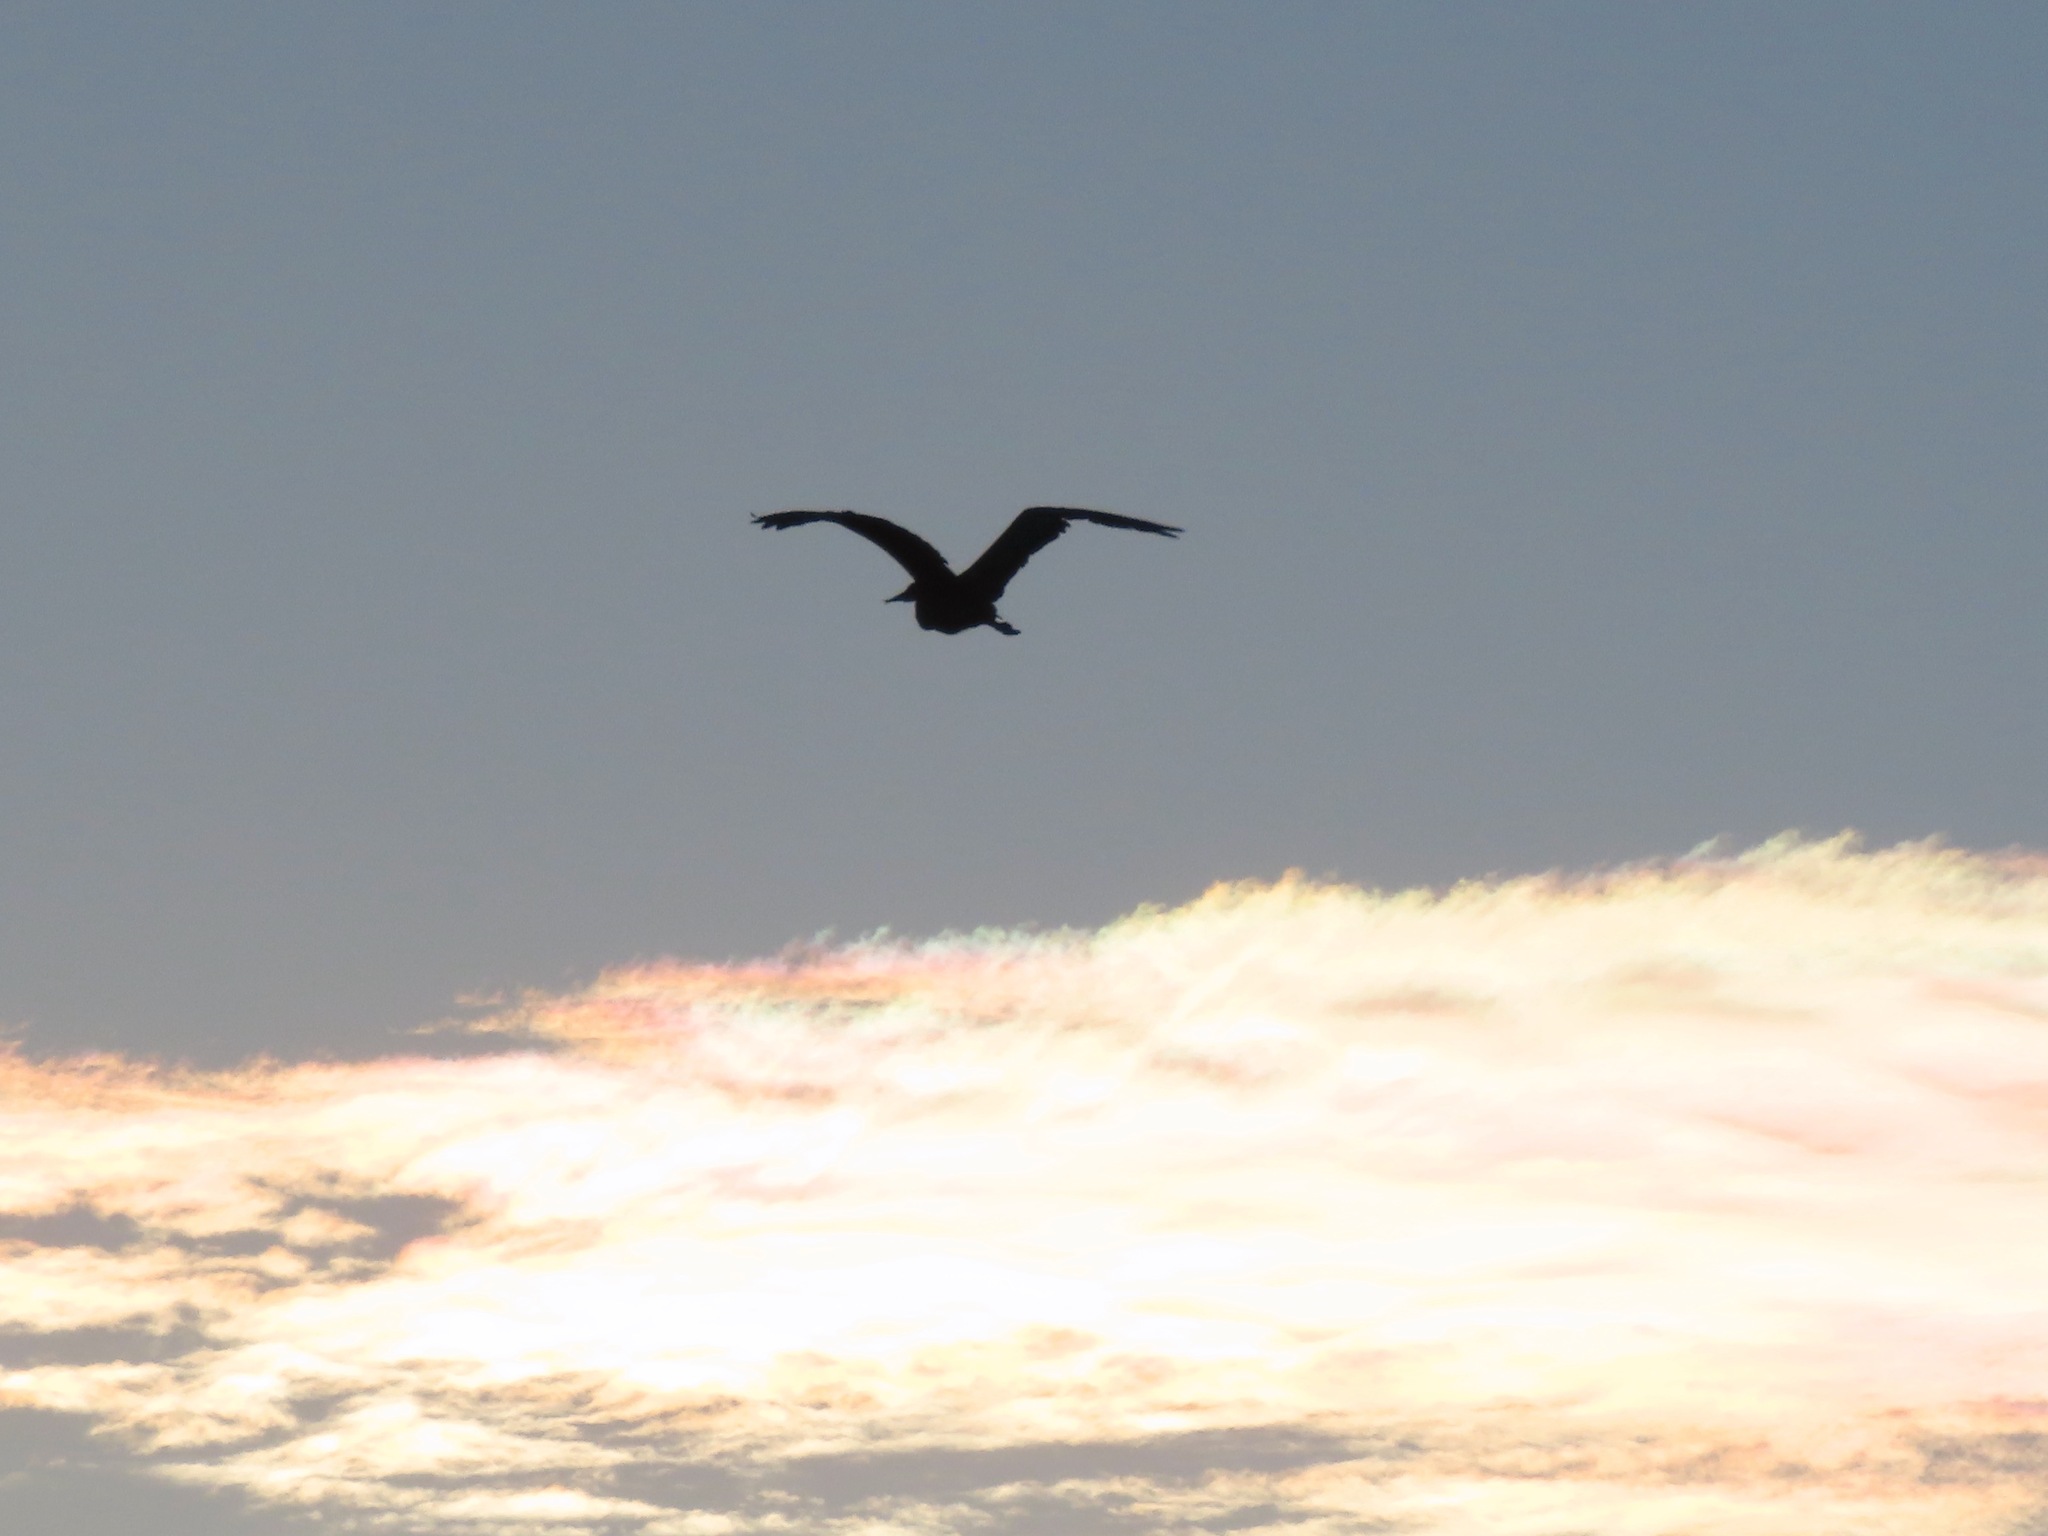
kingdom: Animalia
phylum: Chordata
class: Aves
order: Pelecaniformes
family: Ardeidae
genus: Ardea
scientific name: Ardea herodias
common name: Great blue heron
